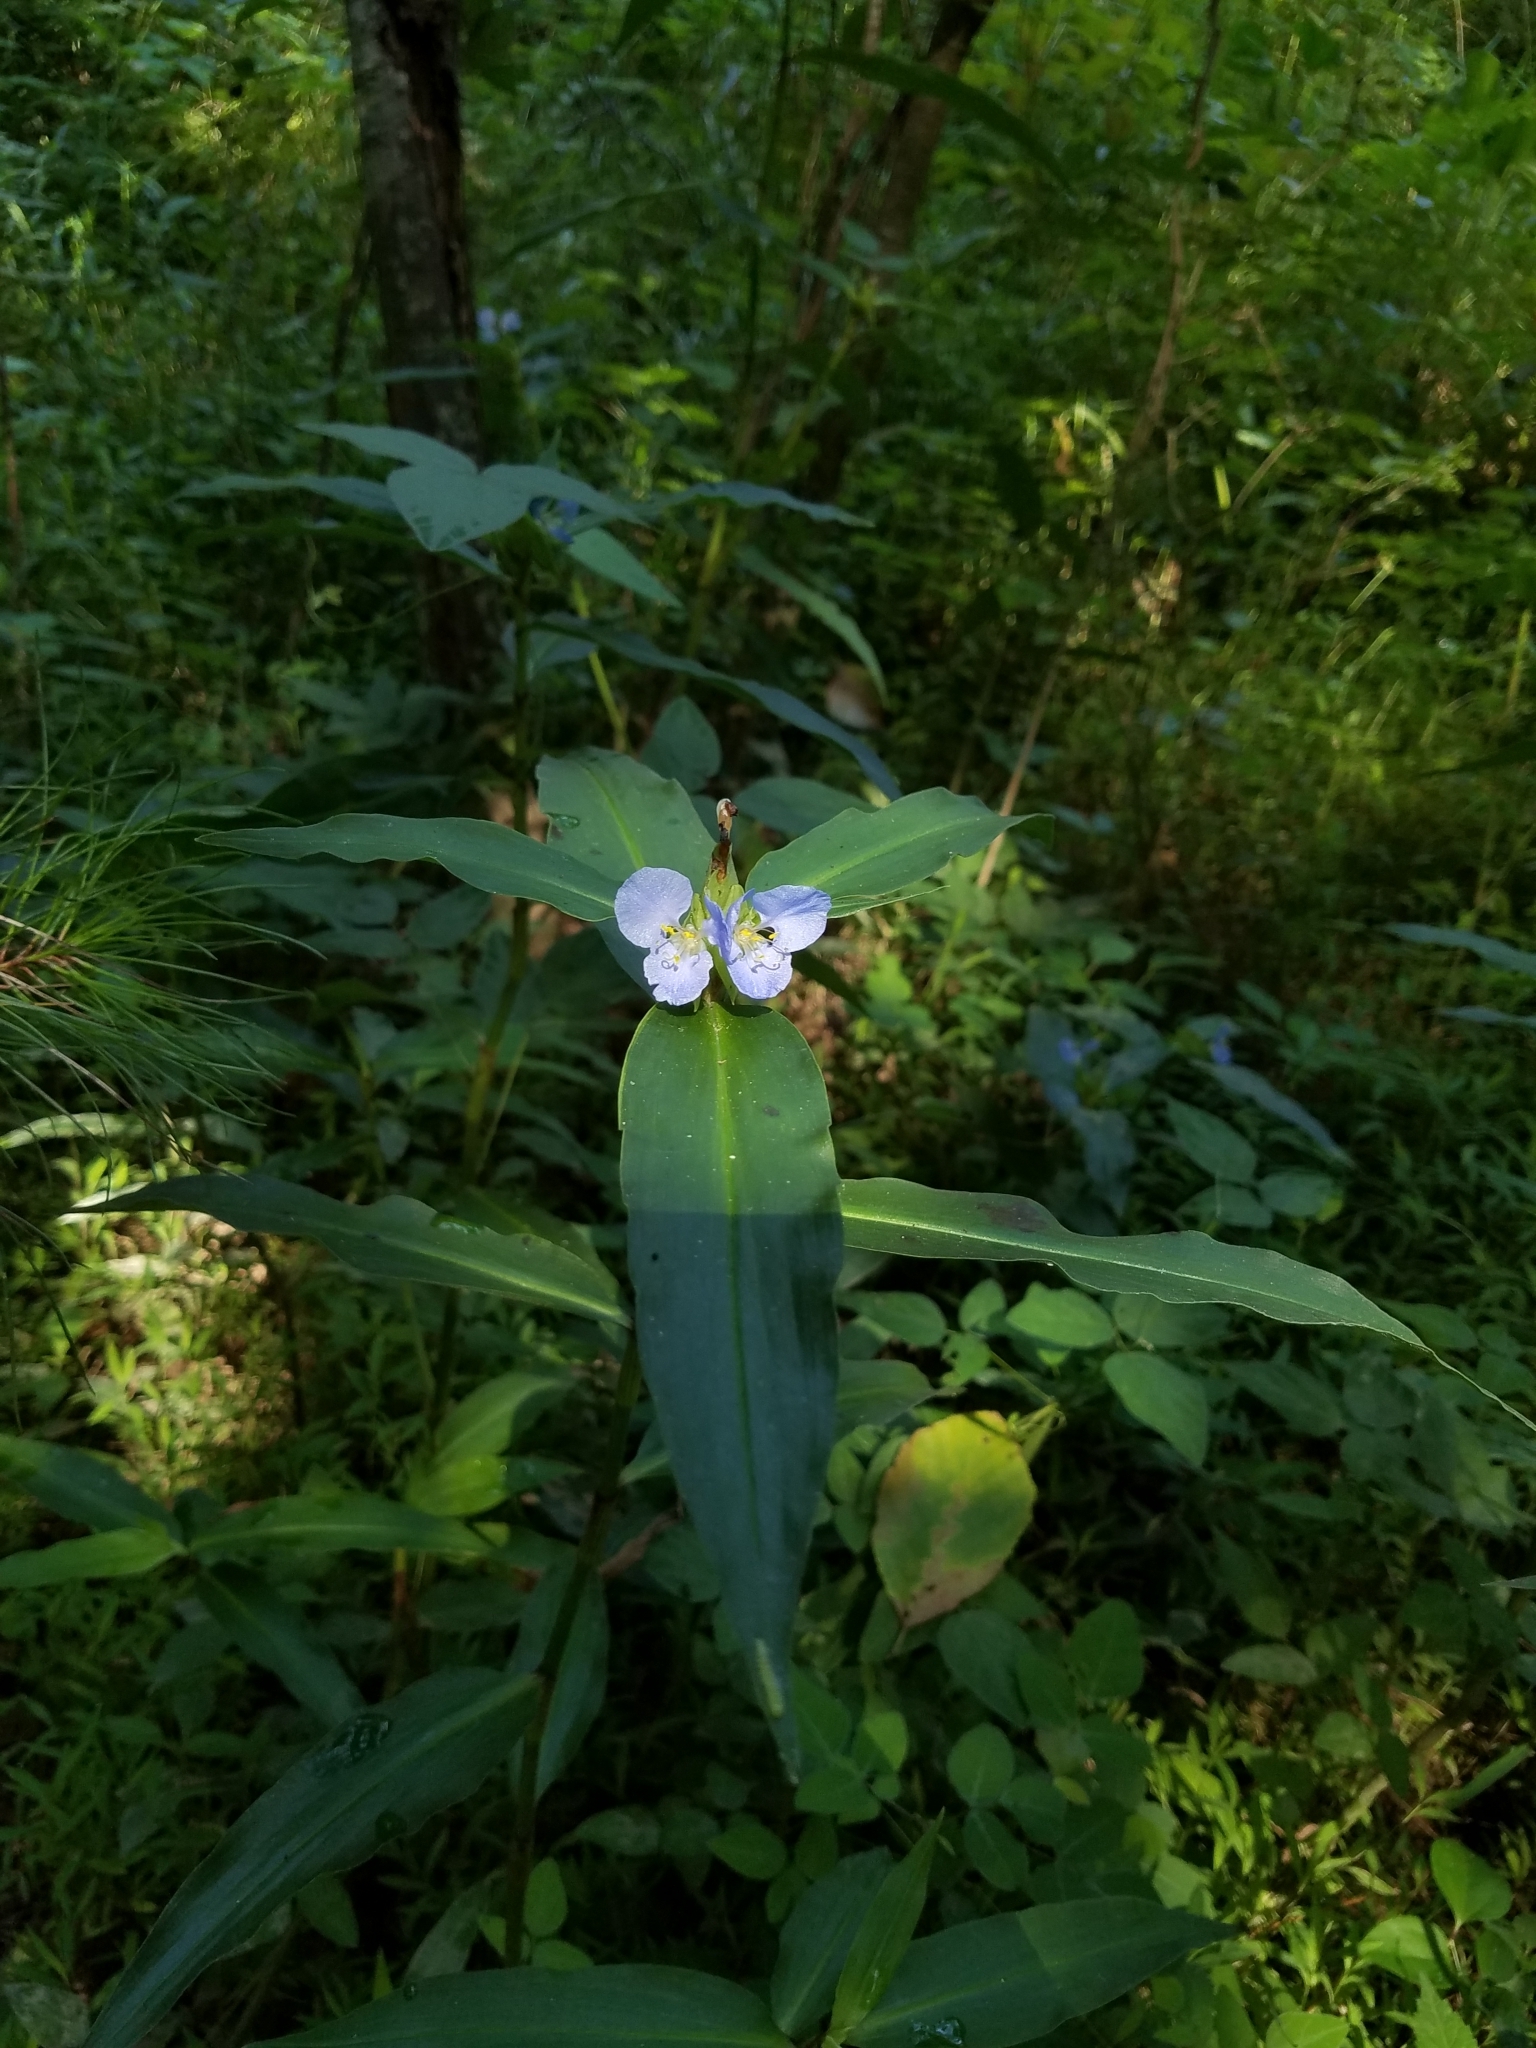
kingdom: Plantae
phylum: Tracheophyta
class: Liliopsida
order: Commelinales
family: Commelinaceae
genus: Commelina
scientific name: Commelina virginica
